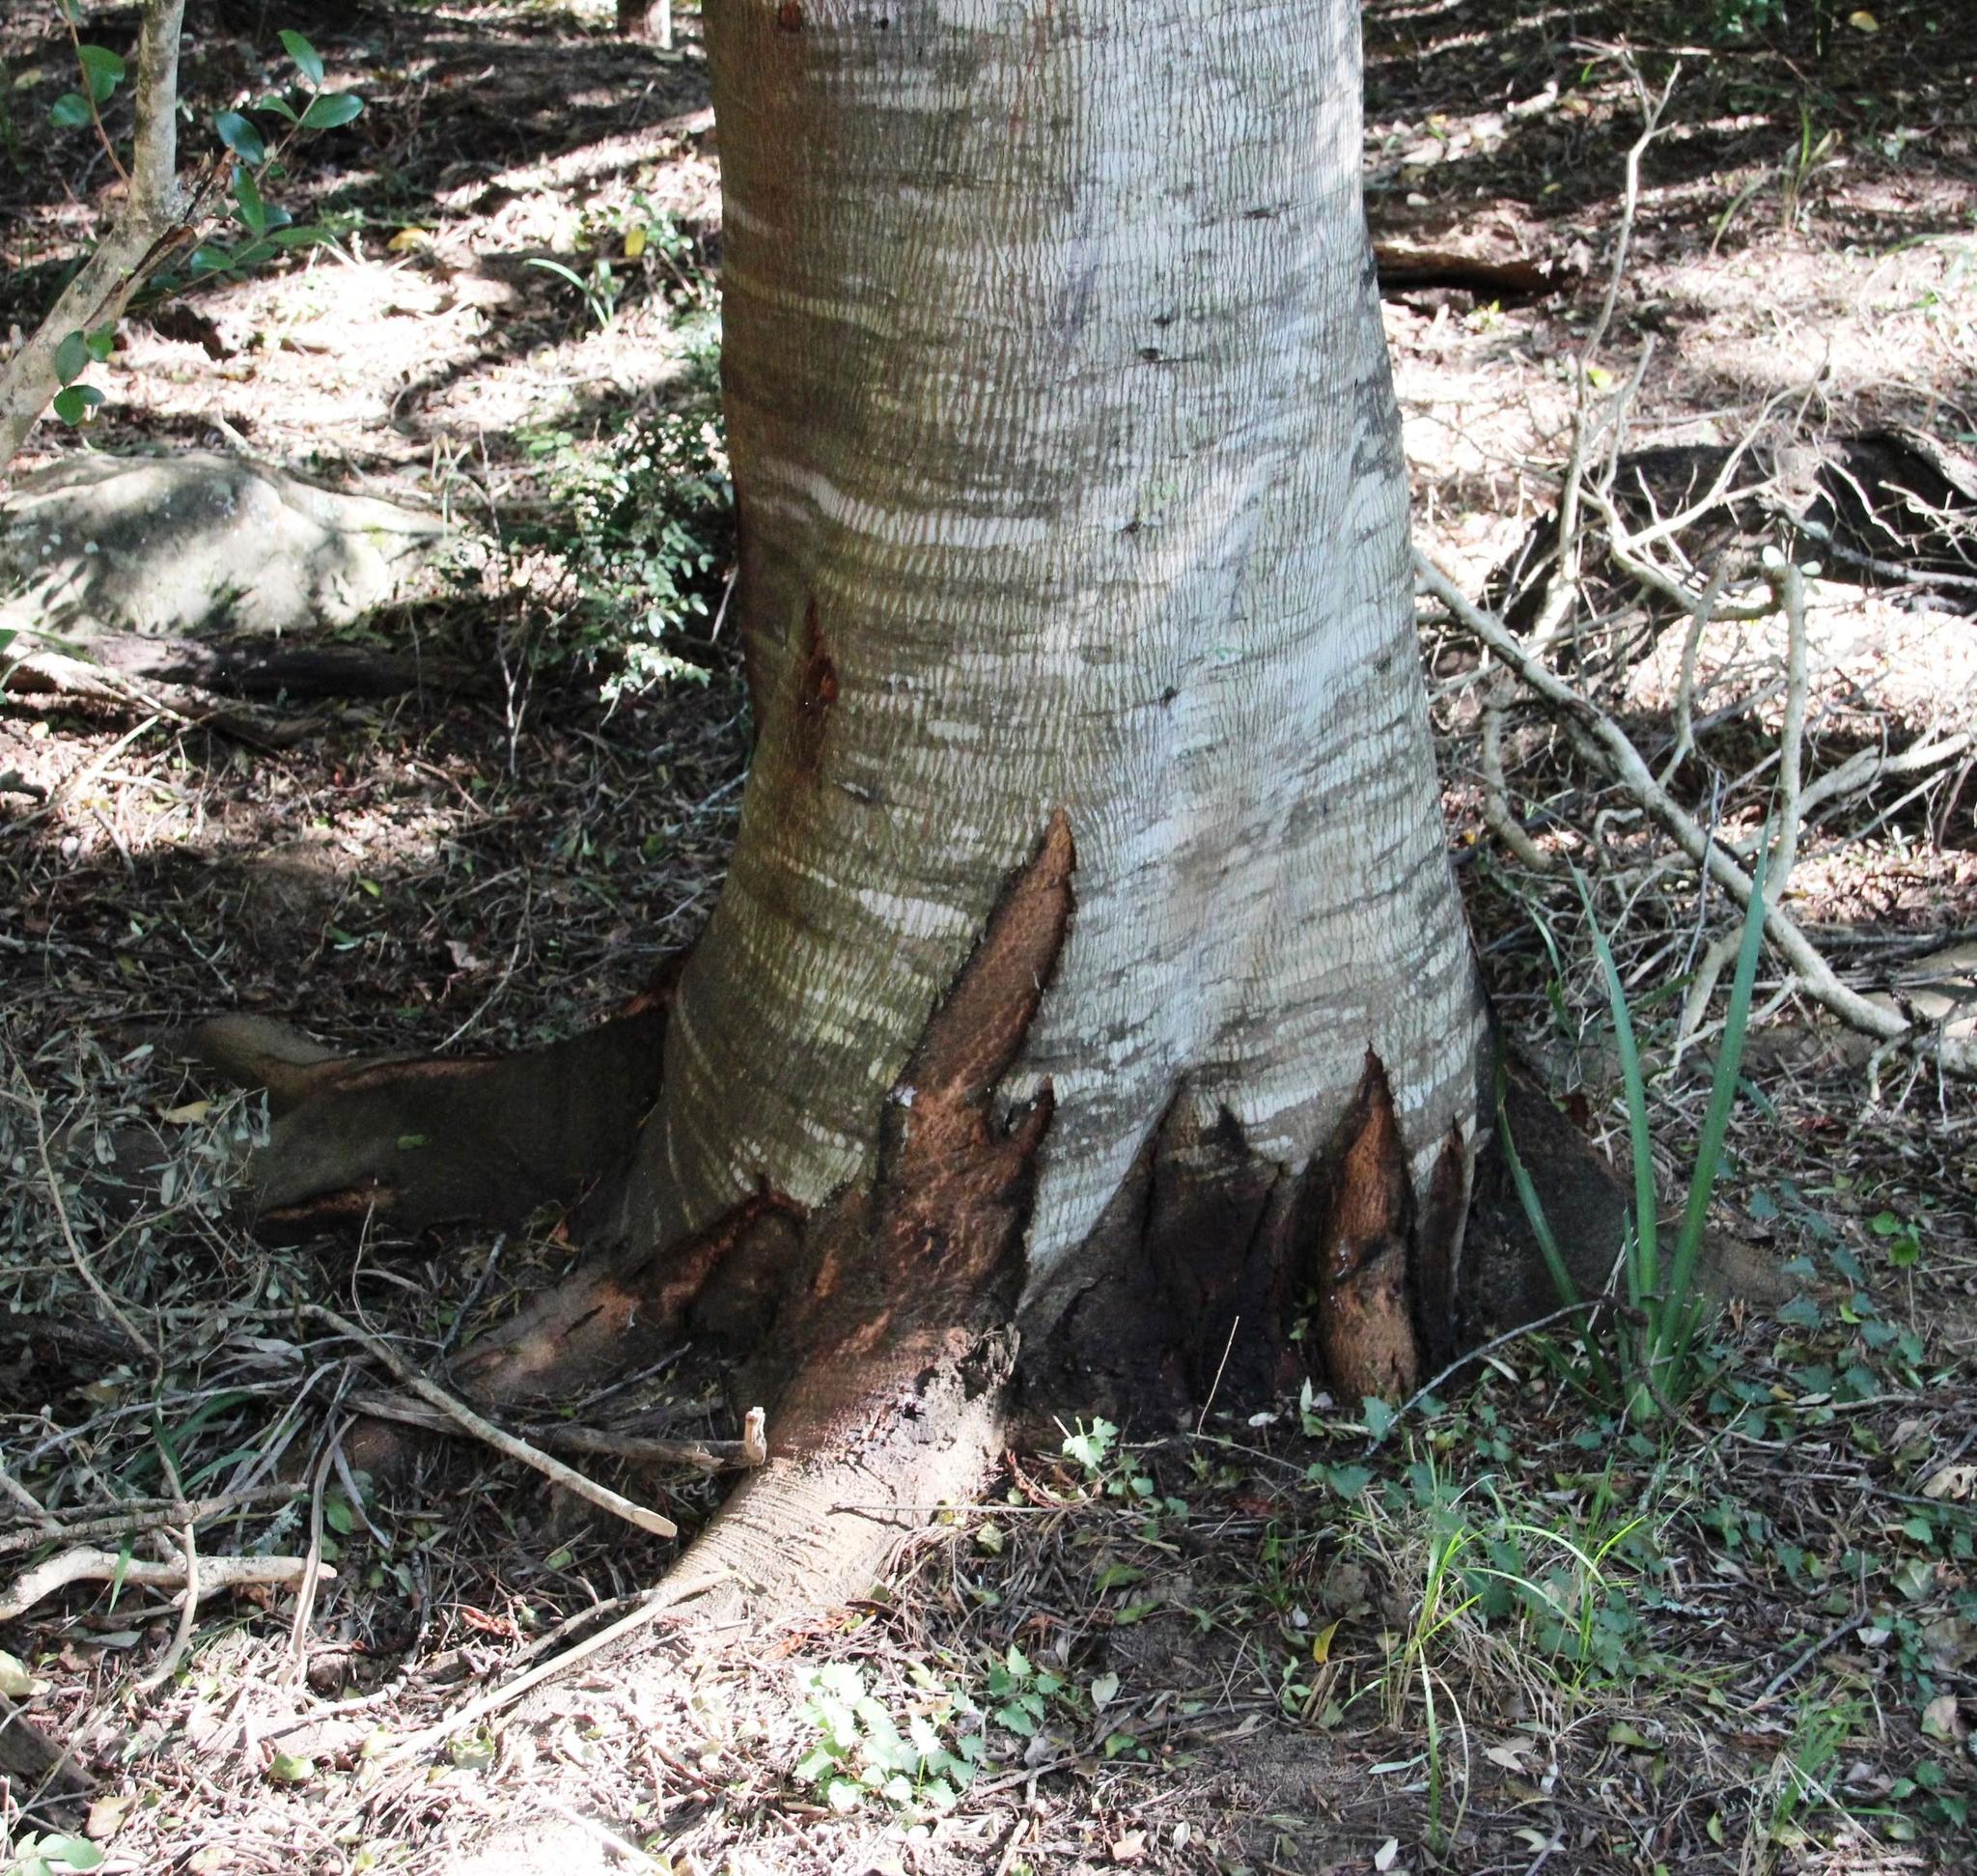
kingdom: Plantae
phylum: Tracheophyta
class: Magnoliopsida
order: Fabales
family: Fabaceae
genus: Acacia
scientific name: Acacia mearnsii
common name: Black wattle
